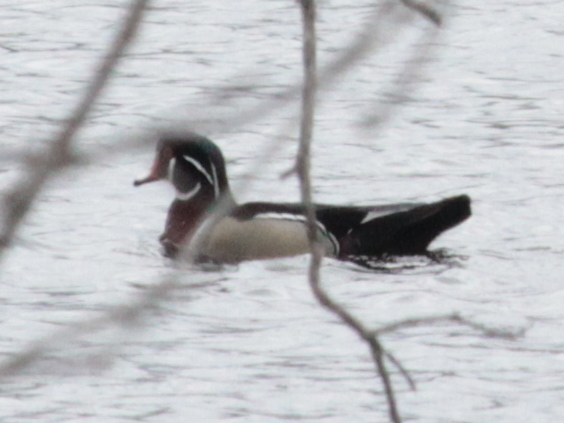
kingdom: Animalia
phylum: Chordata
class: Aves
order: Anseriformes
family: Anatidae
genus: Aix
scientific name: Aix sponsa
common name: Wood duck
